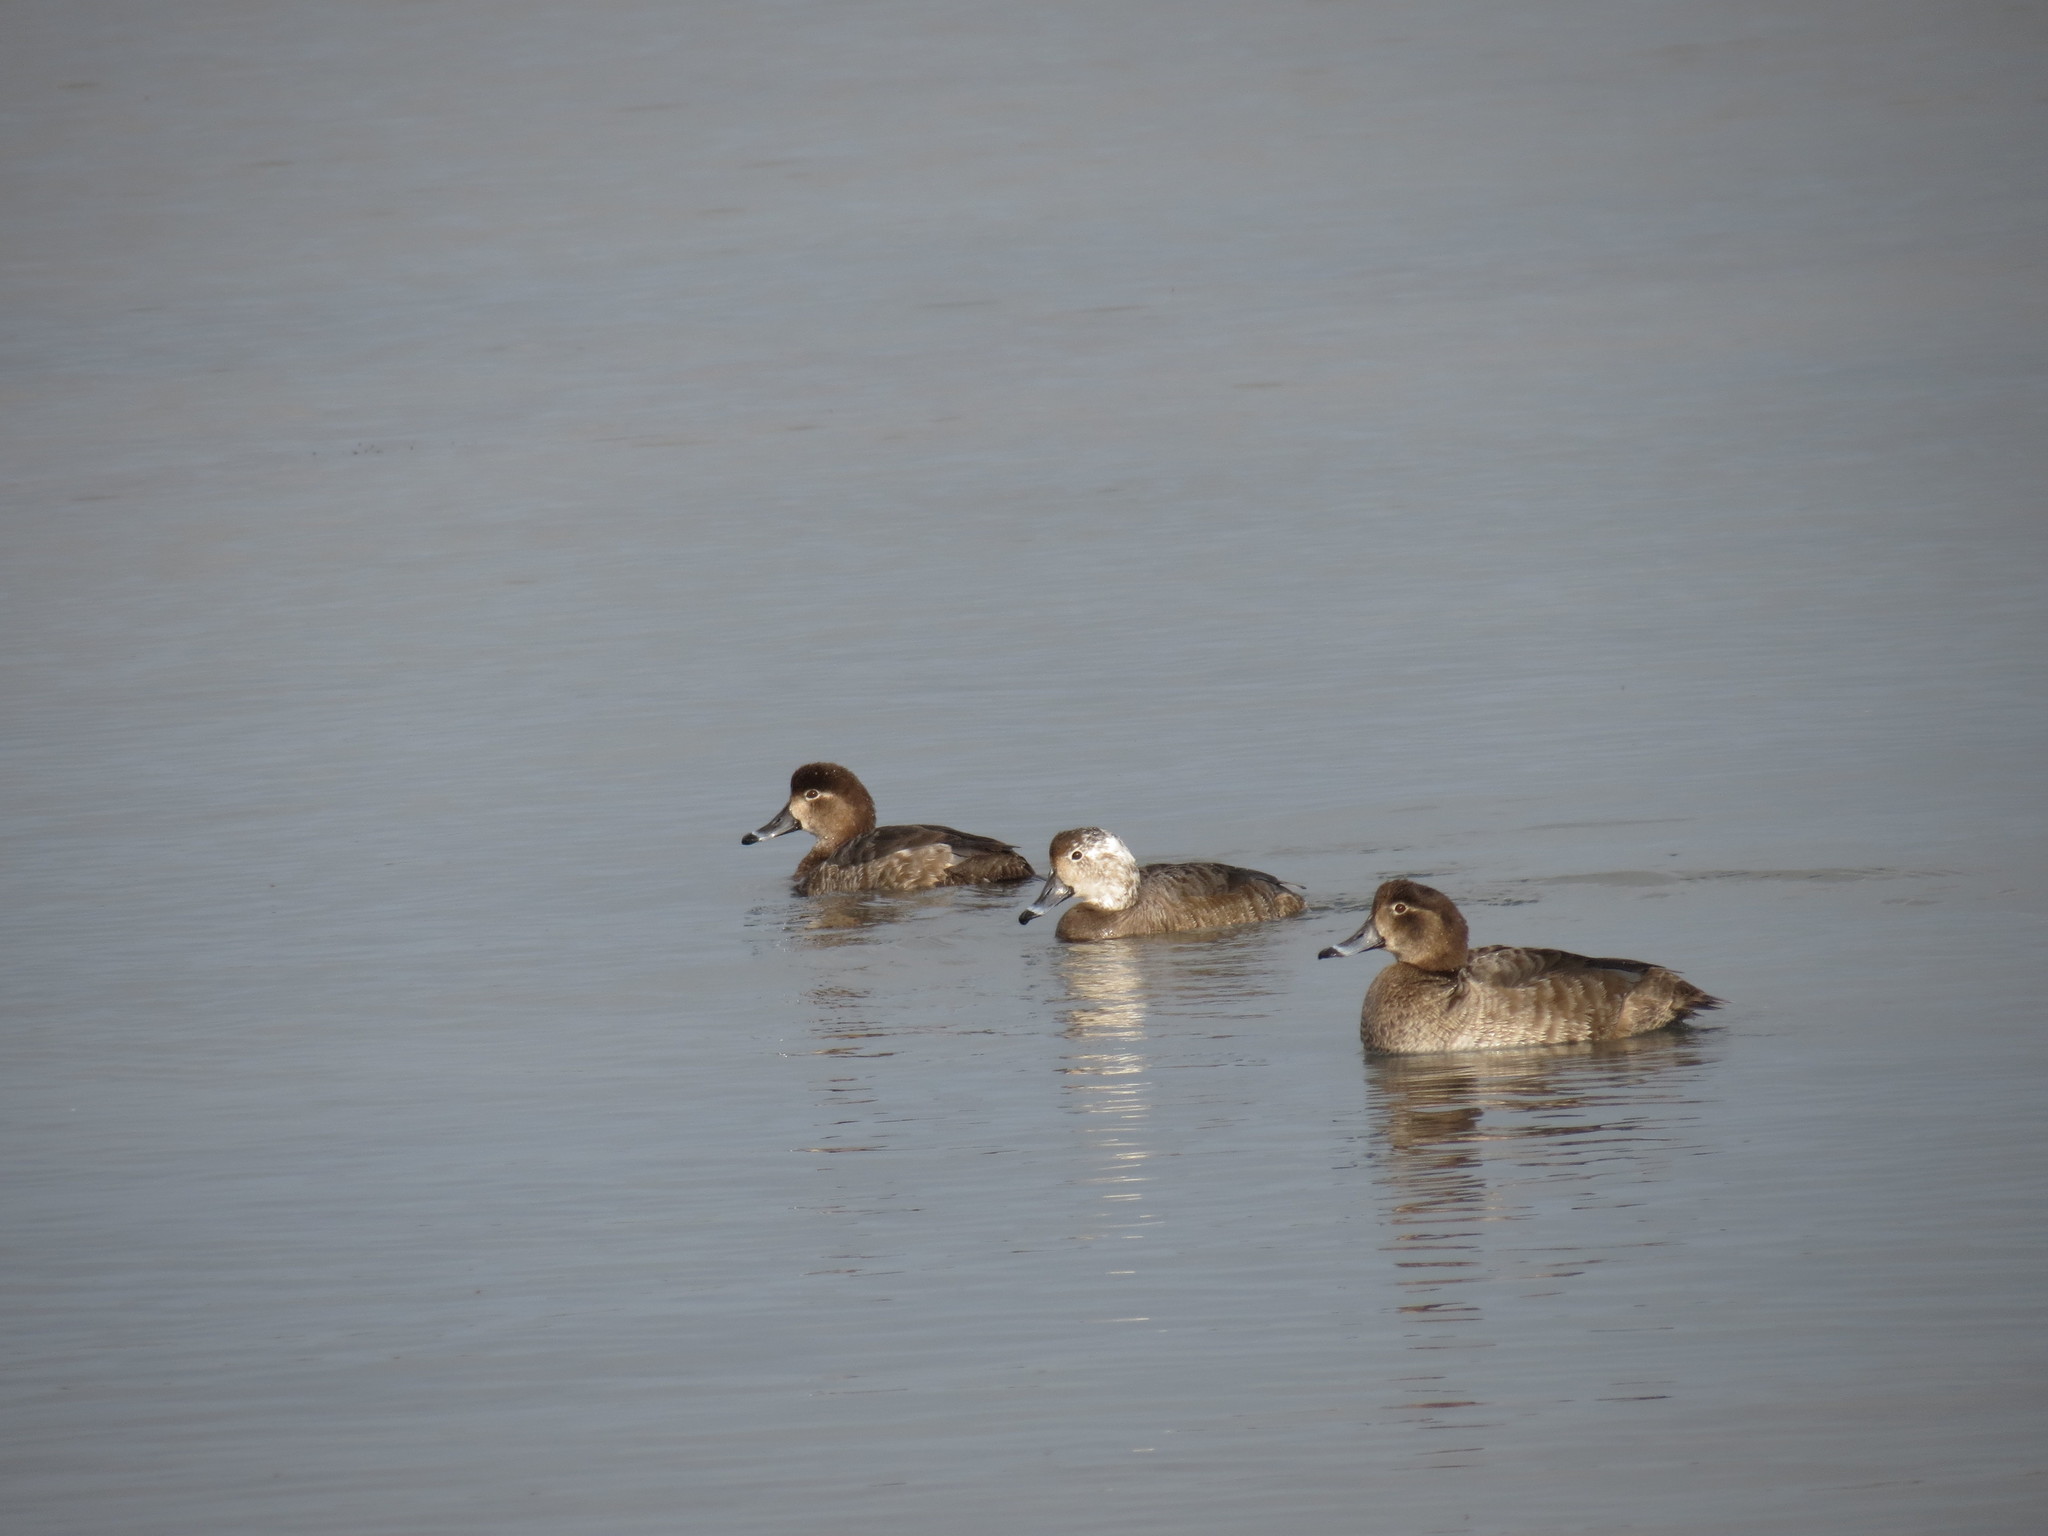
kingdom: Animalia
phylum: Chordata
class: Aves
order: Anseriformes
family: Anatidae
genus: Aythya
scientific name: Aythya americana
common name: Redhead
